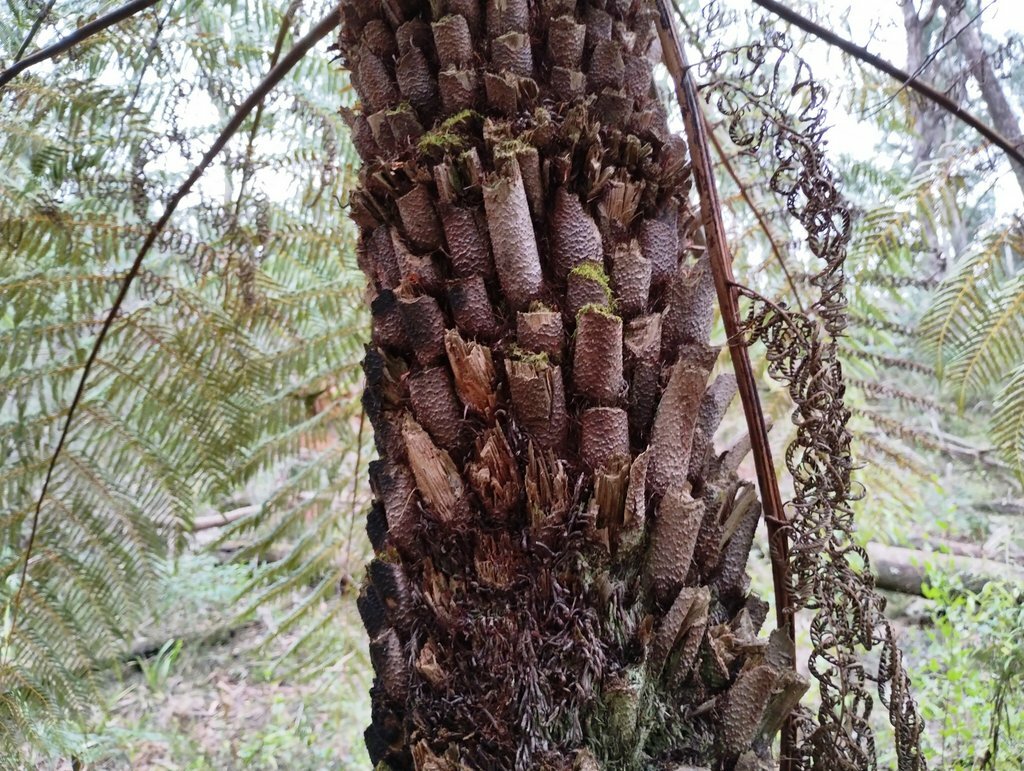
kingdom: Plantae
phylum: Tracheophyta
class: Polypodiopsida
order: Cyatheales
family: Cyatheaceae
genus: Alsophila
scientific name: Alsophila australis
